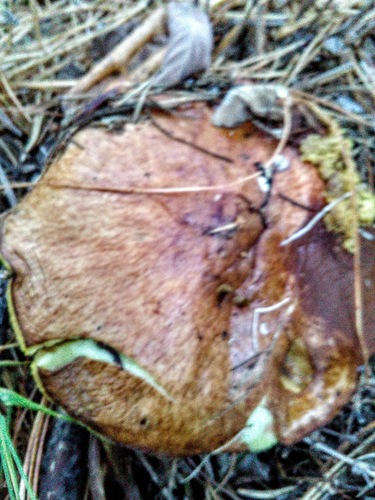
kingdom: Fungi
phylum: Basidiomycota
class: Agaricomycetes
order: Boletales
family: Suillaceae
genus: Suillus
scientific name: Suillus
